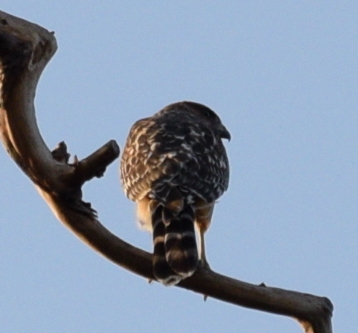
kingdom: Animalia
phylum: Chordata
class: Aves
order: Accipitriformes
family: Accipitridae
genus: Buteo
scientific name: Buteo lineatus
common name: Red-shouldered hawk
